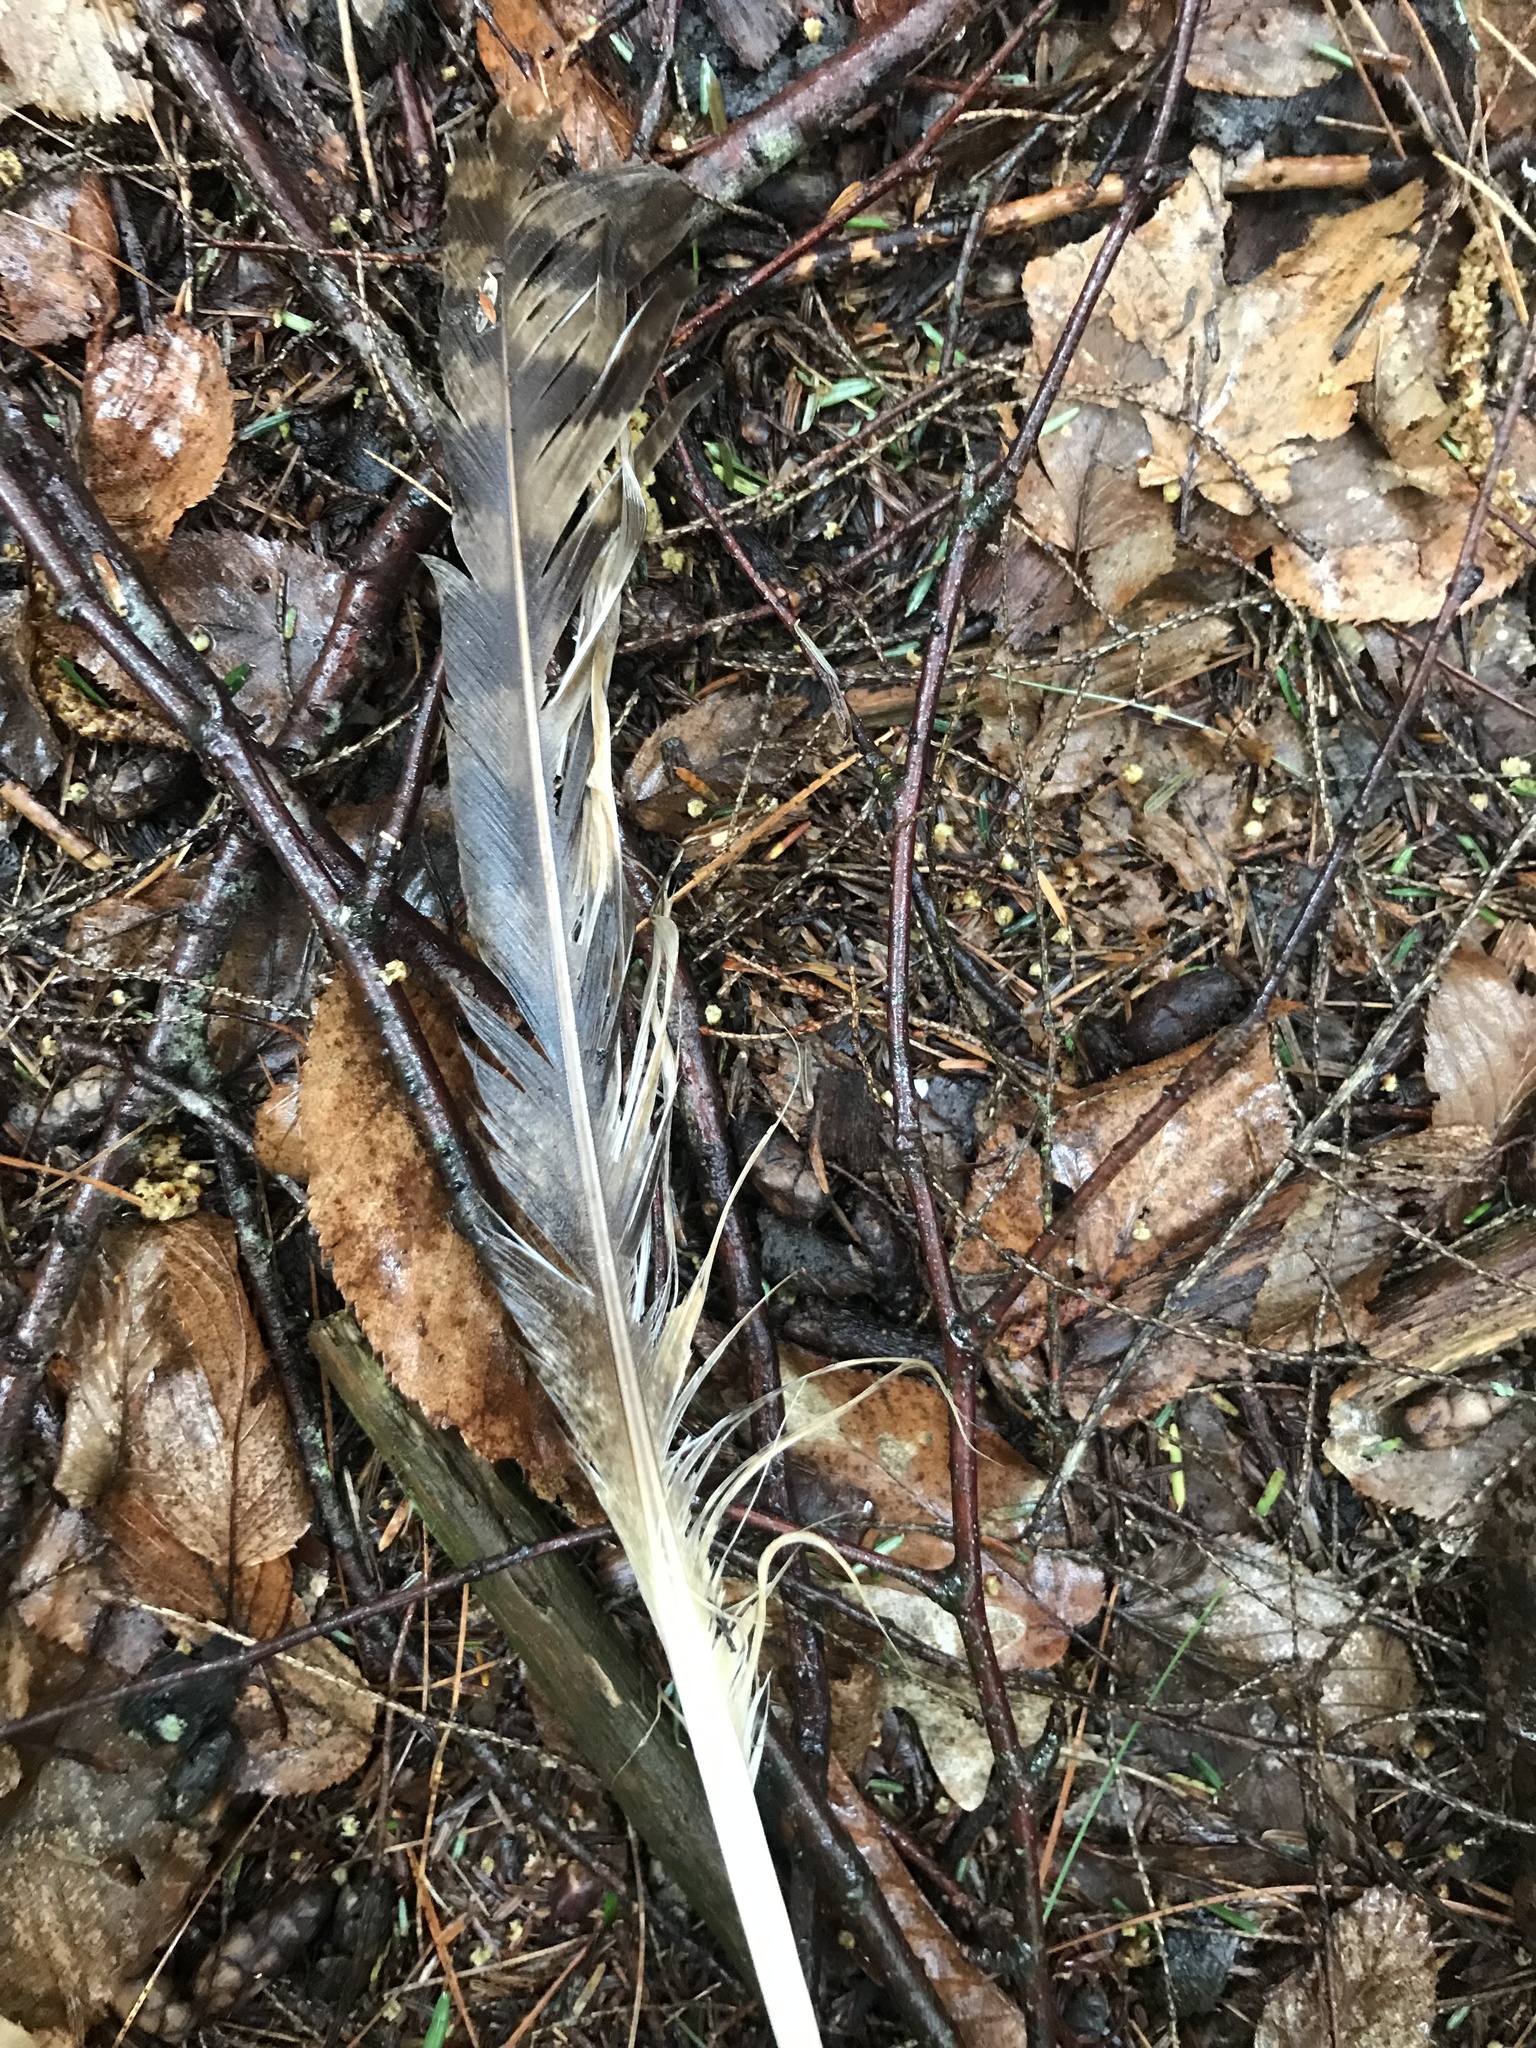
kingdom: Animalia
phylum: Chordata
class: Aves
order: Strigiformes
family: Strigidae
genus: Bubo
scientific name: Bubo virginianus
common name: Great horned owl
